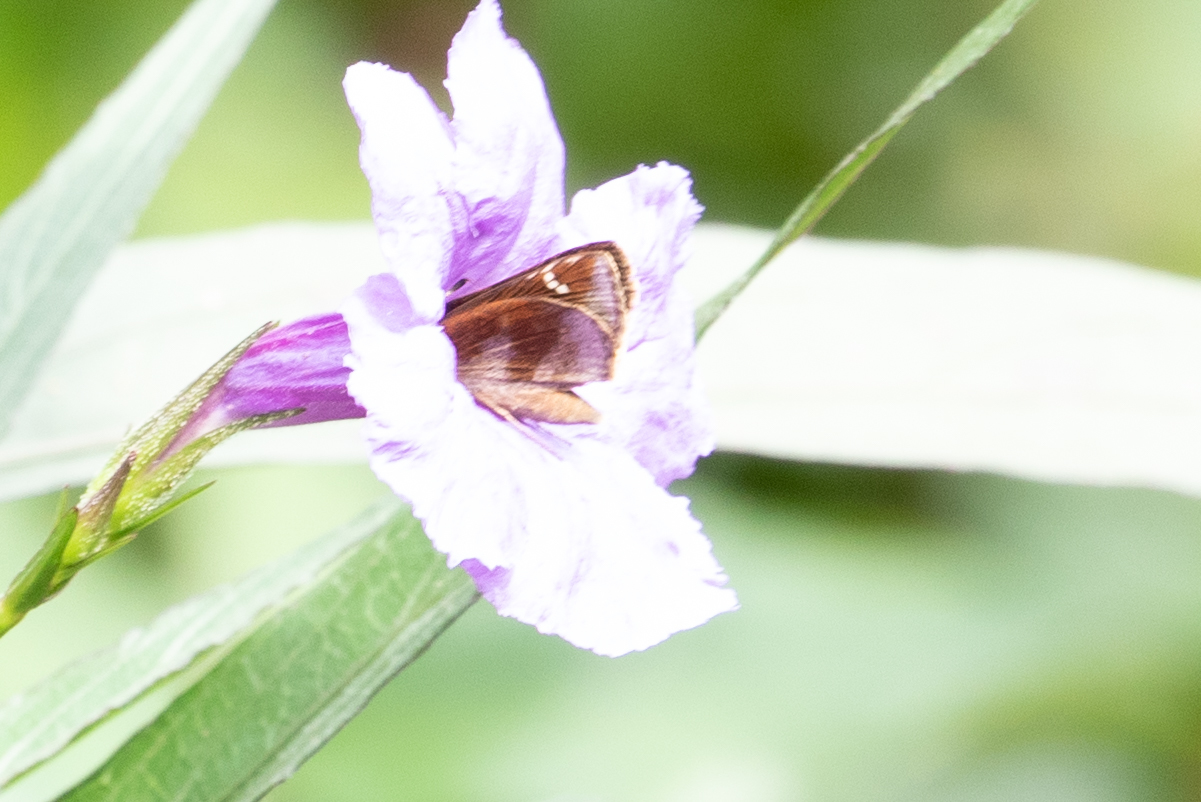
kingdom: Animalia
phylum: Arthropoda
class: Insecta
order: Lepidoptera
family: Hesperiidae
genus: Lerema
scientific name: Lerema accius
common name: Clouded skipper
